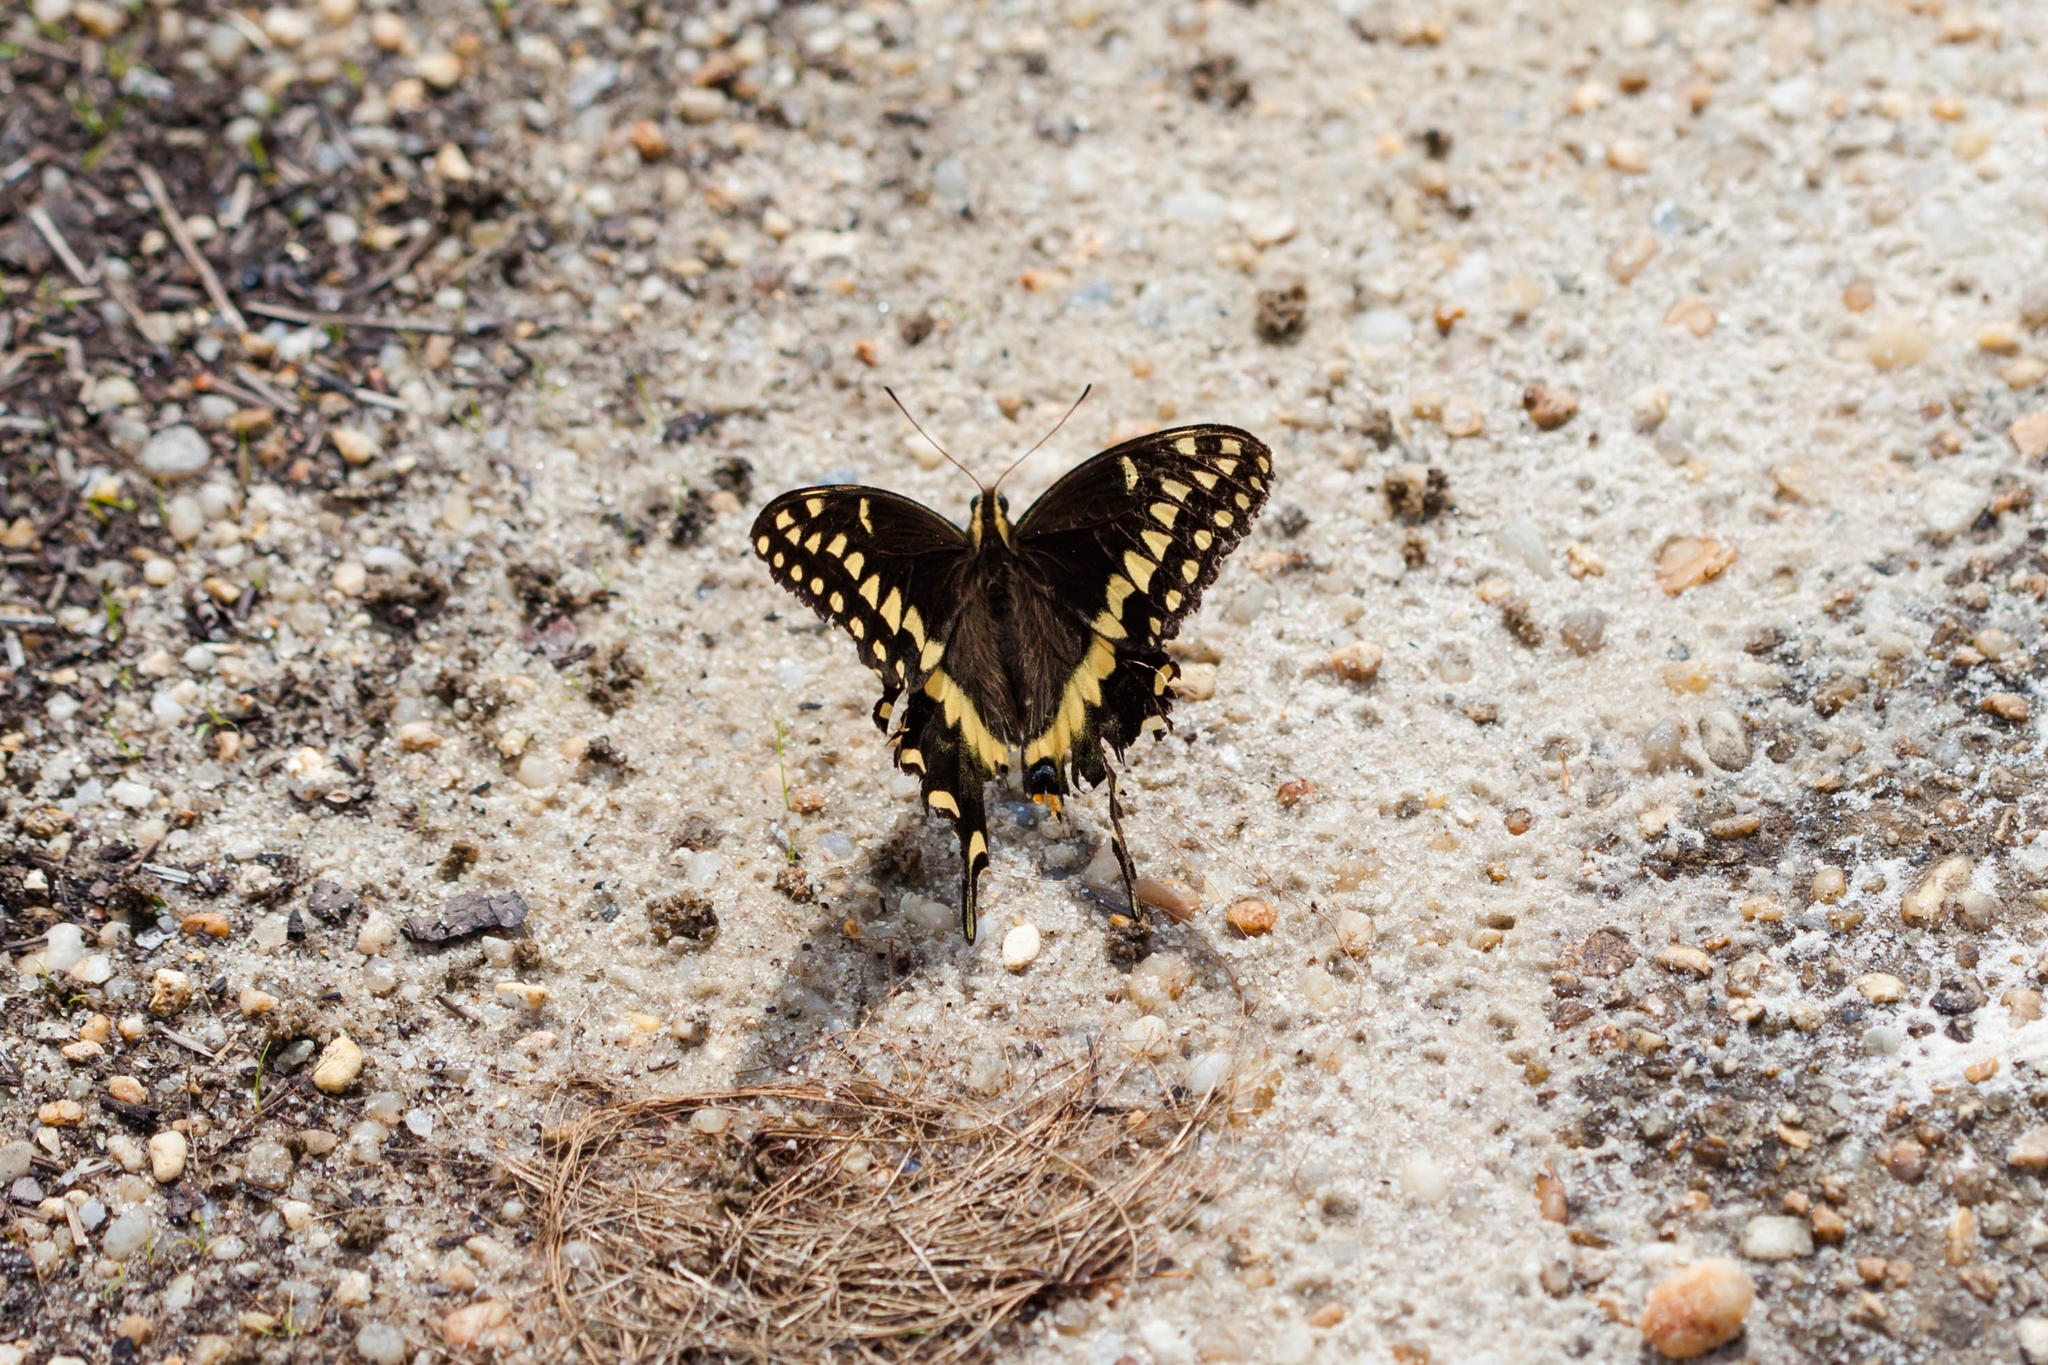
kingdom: Animalia
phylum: Arthropoda
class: Insecta
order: Lepidoptera
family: Papilionidae
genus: Papilio
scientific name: Papilio palamedes
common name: Palamedes swallowtail
